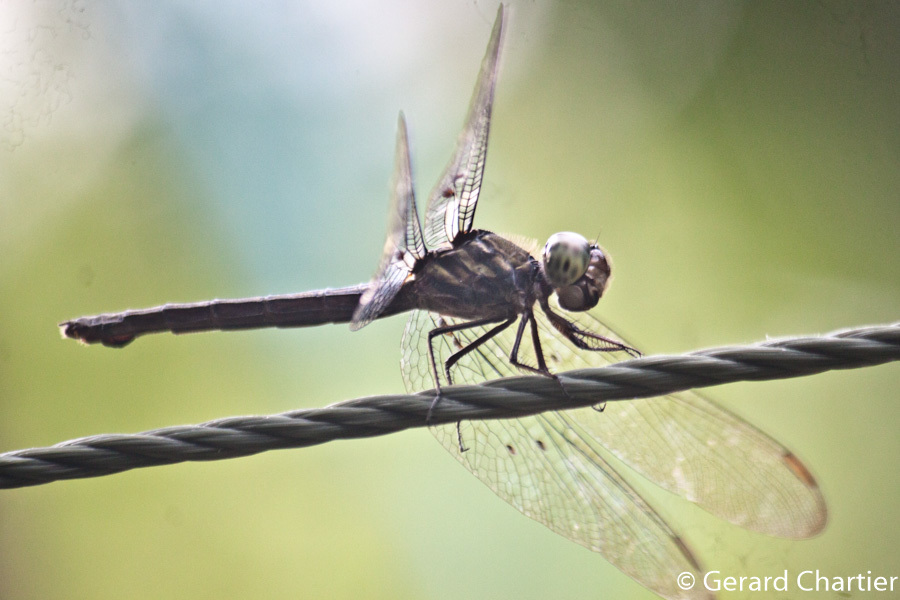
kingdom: Animalia
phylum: Arthropoda
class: Insecta
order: Odonata
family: Libellulidae
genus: Cratilla
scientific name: Cratilla lineata
